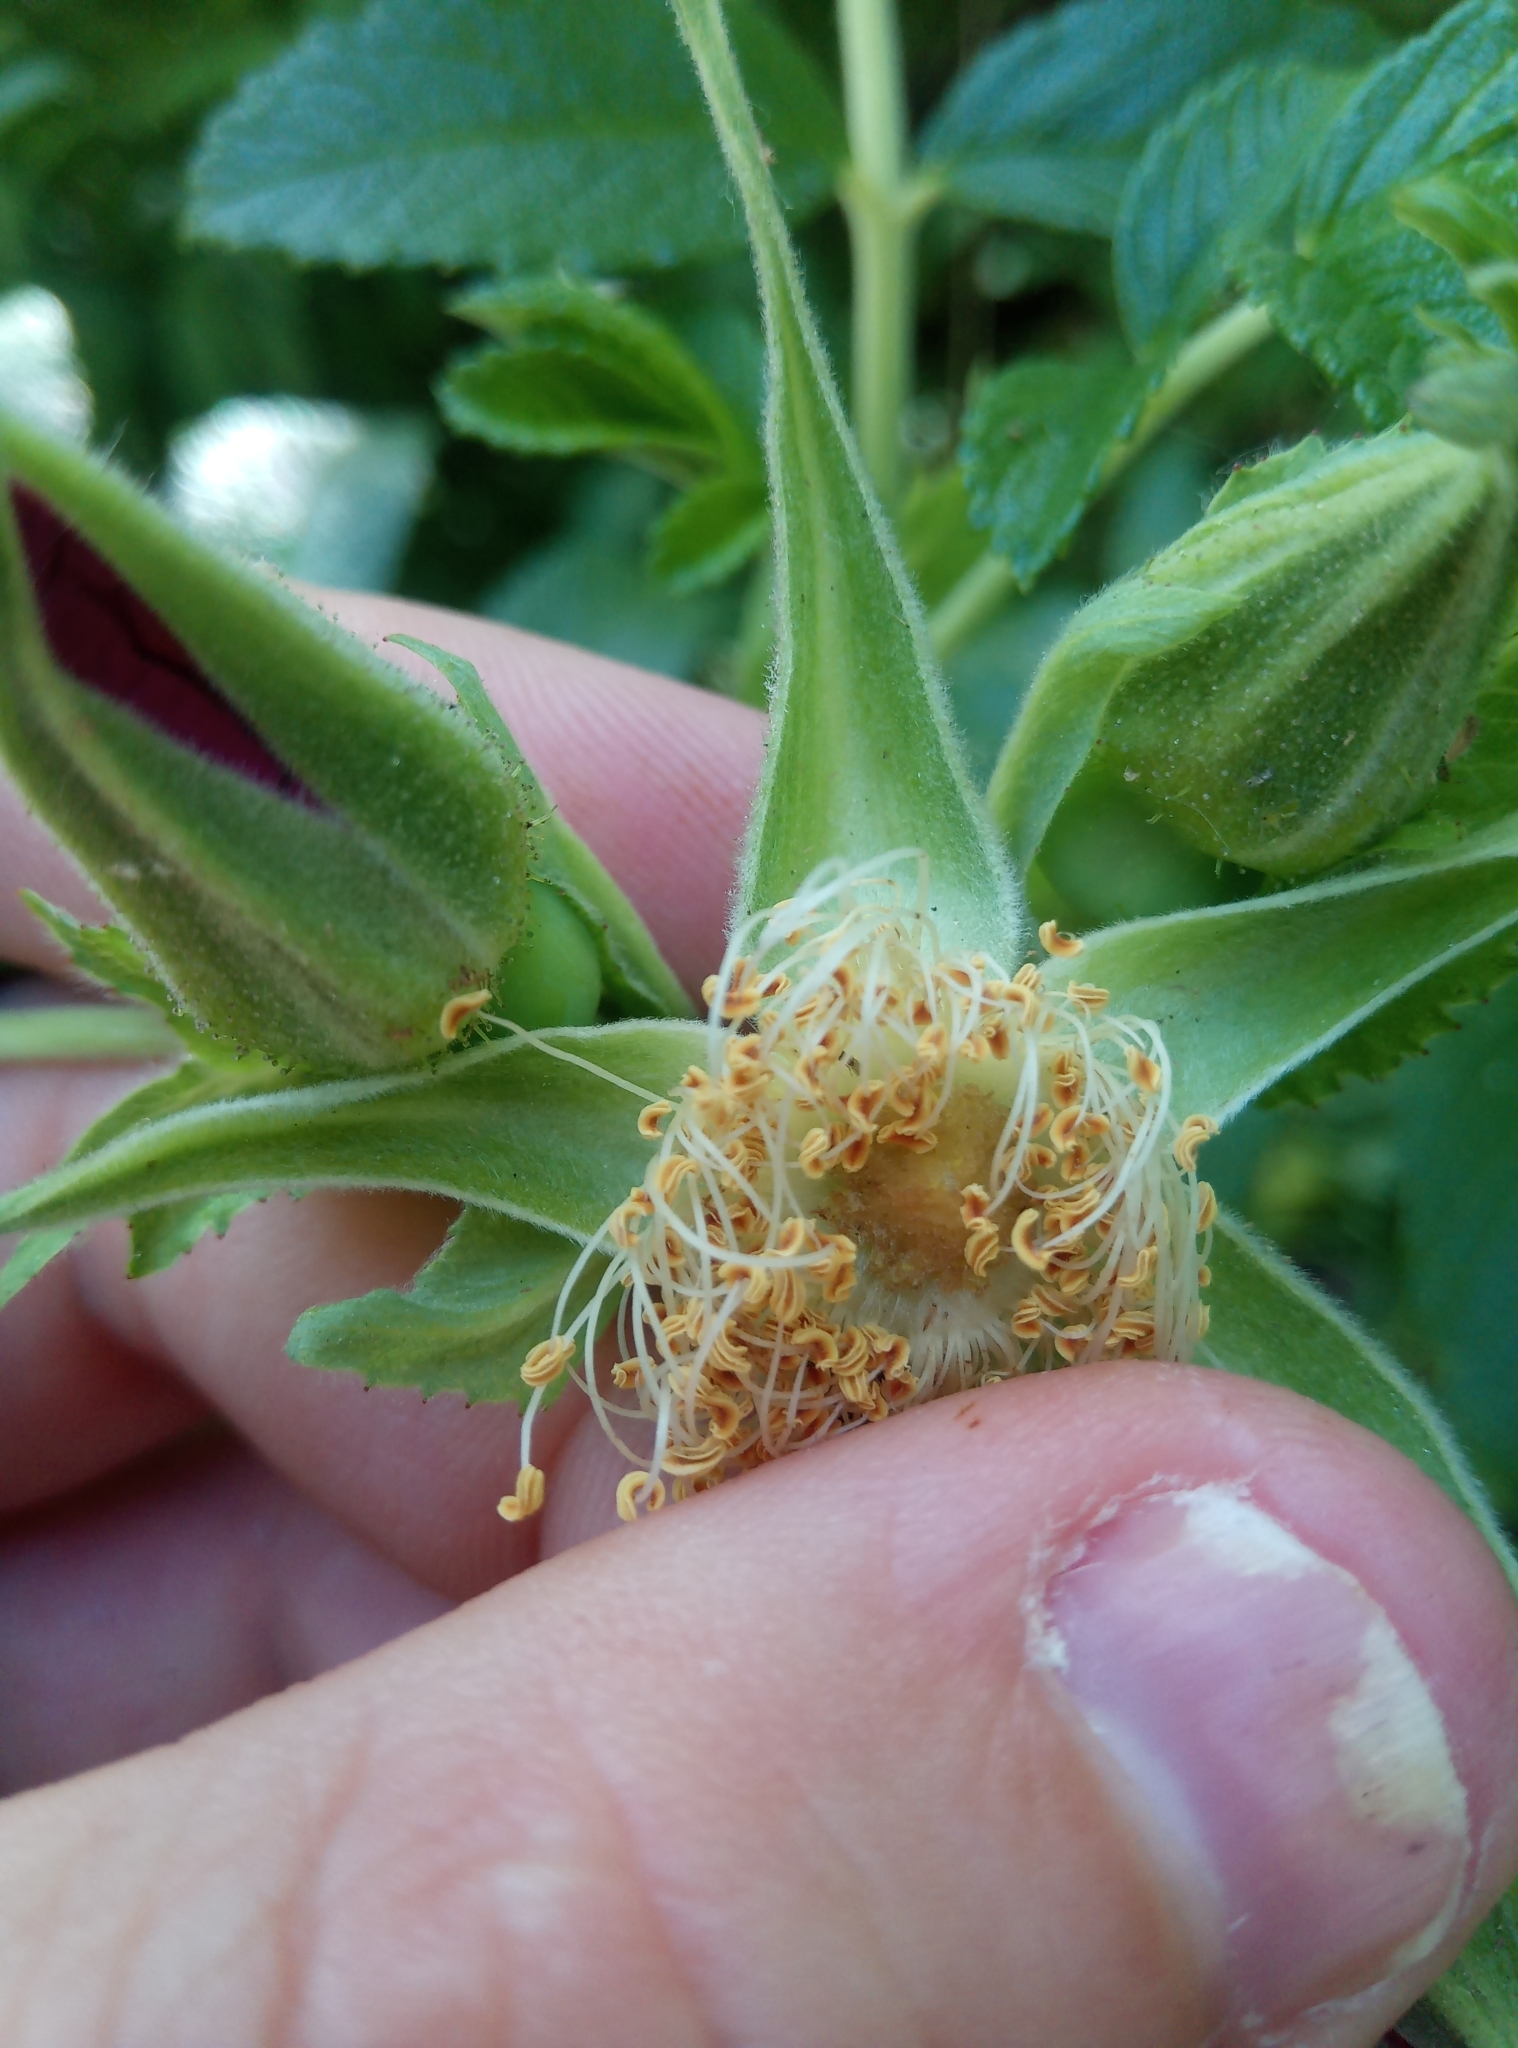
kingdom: Plantae
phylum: Tracheophyta
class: Magnoliopsida
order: Rosales
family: Rosaceae
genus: Rosa
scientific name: Rosa rugosa
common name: Japanese rose
